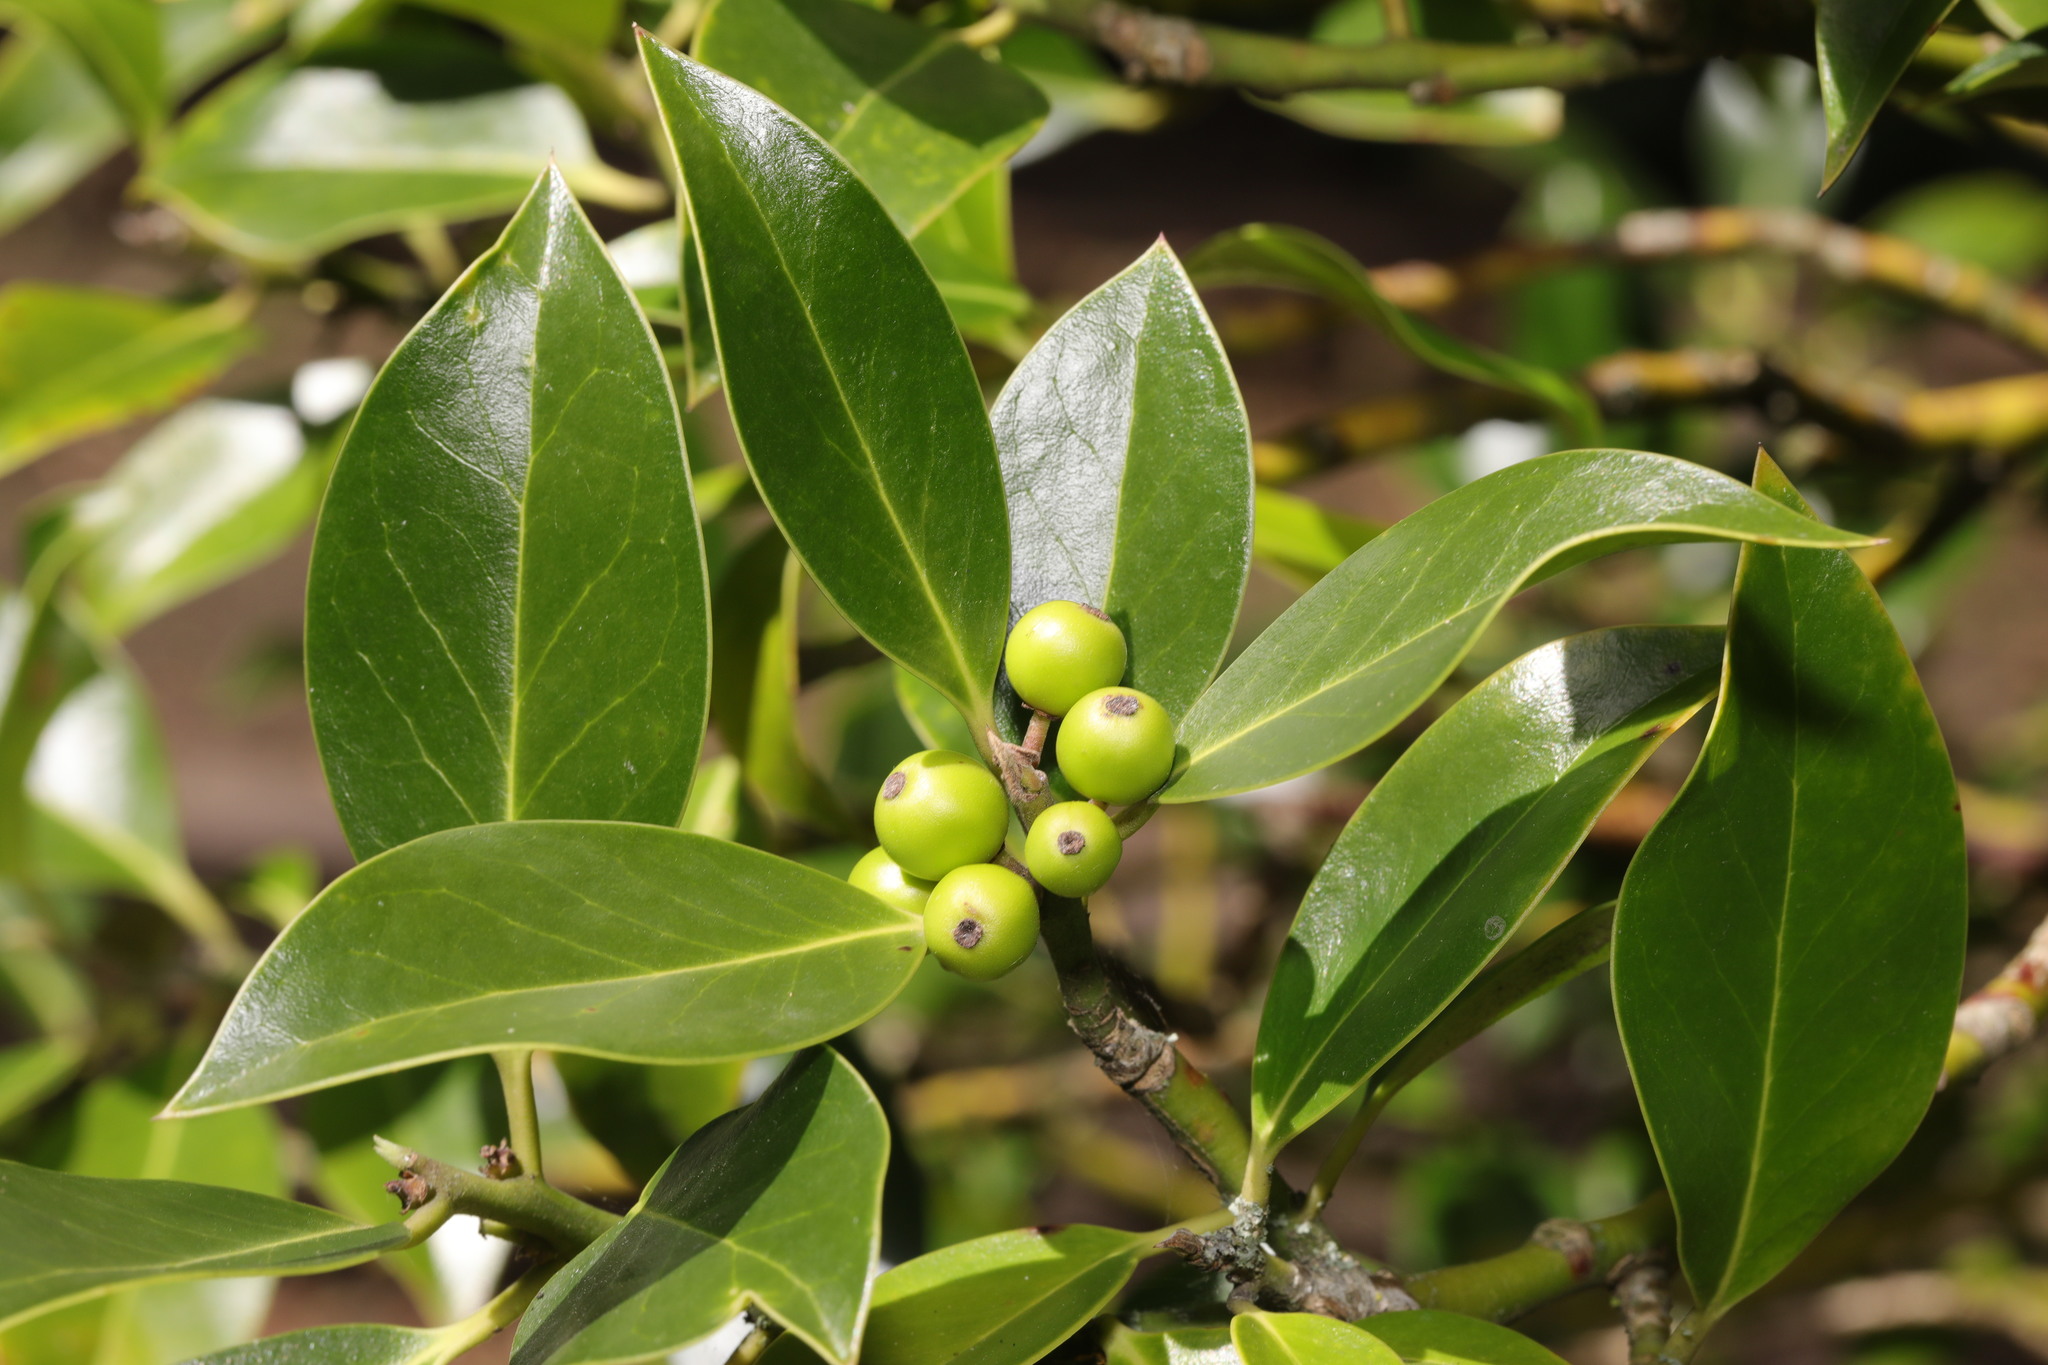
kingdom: Plantae
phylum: Tracheophyta
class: Magnoliopsida
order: Aquifoliales
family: Aquifoliaceae
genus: Ilex
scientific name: Ilex aquifolium
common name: English holly
